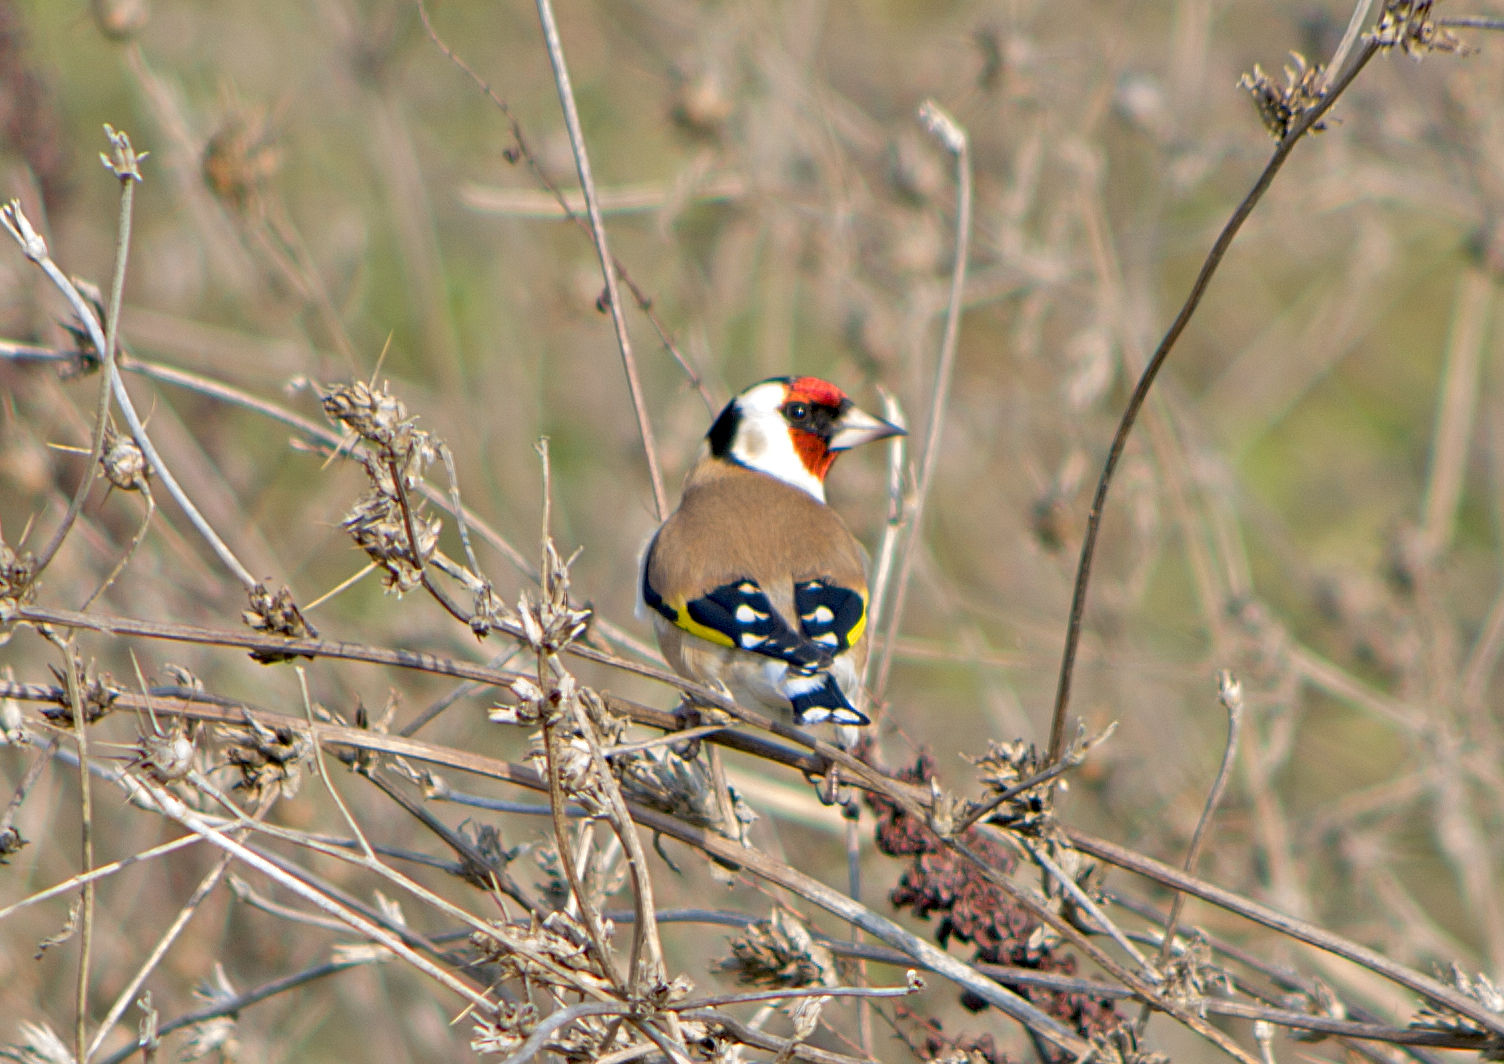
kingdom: Animalia
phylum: Chordata
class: Aves
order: Passeriformes
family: Fringillidae
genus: Carduelis
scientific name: Carduelis carduelis
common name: European goldfinch
